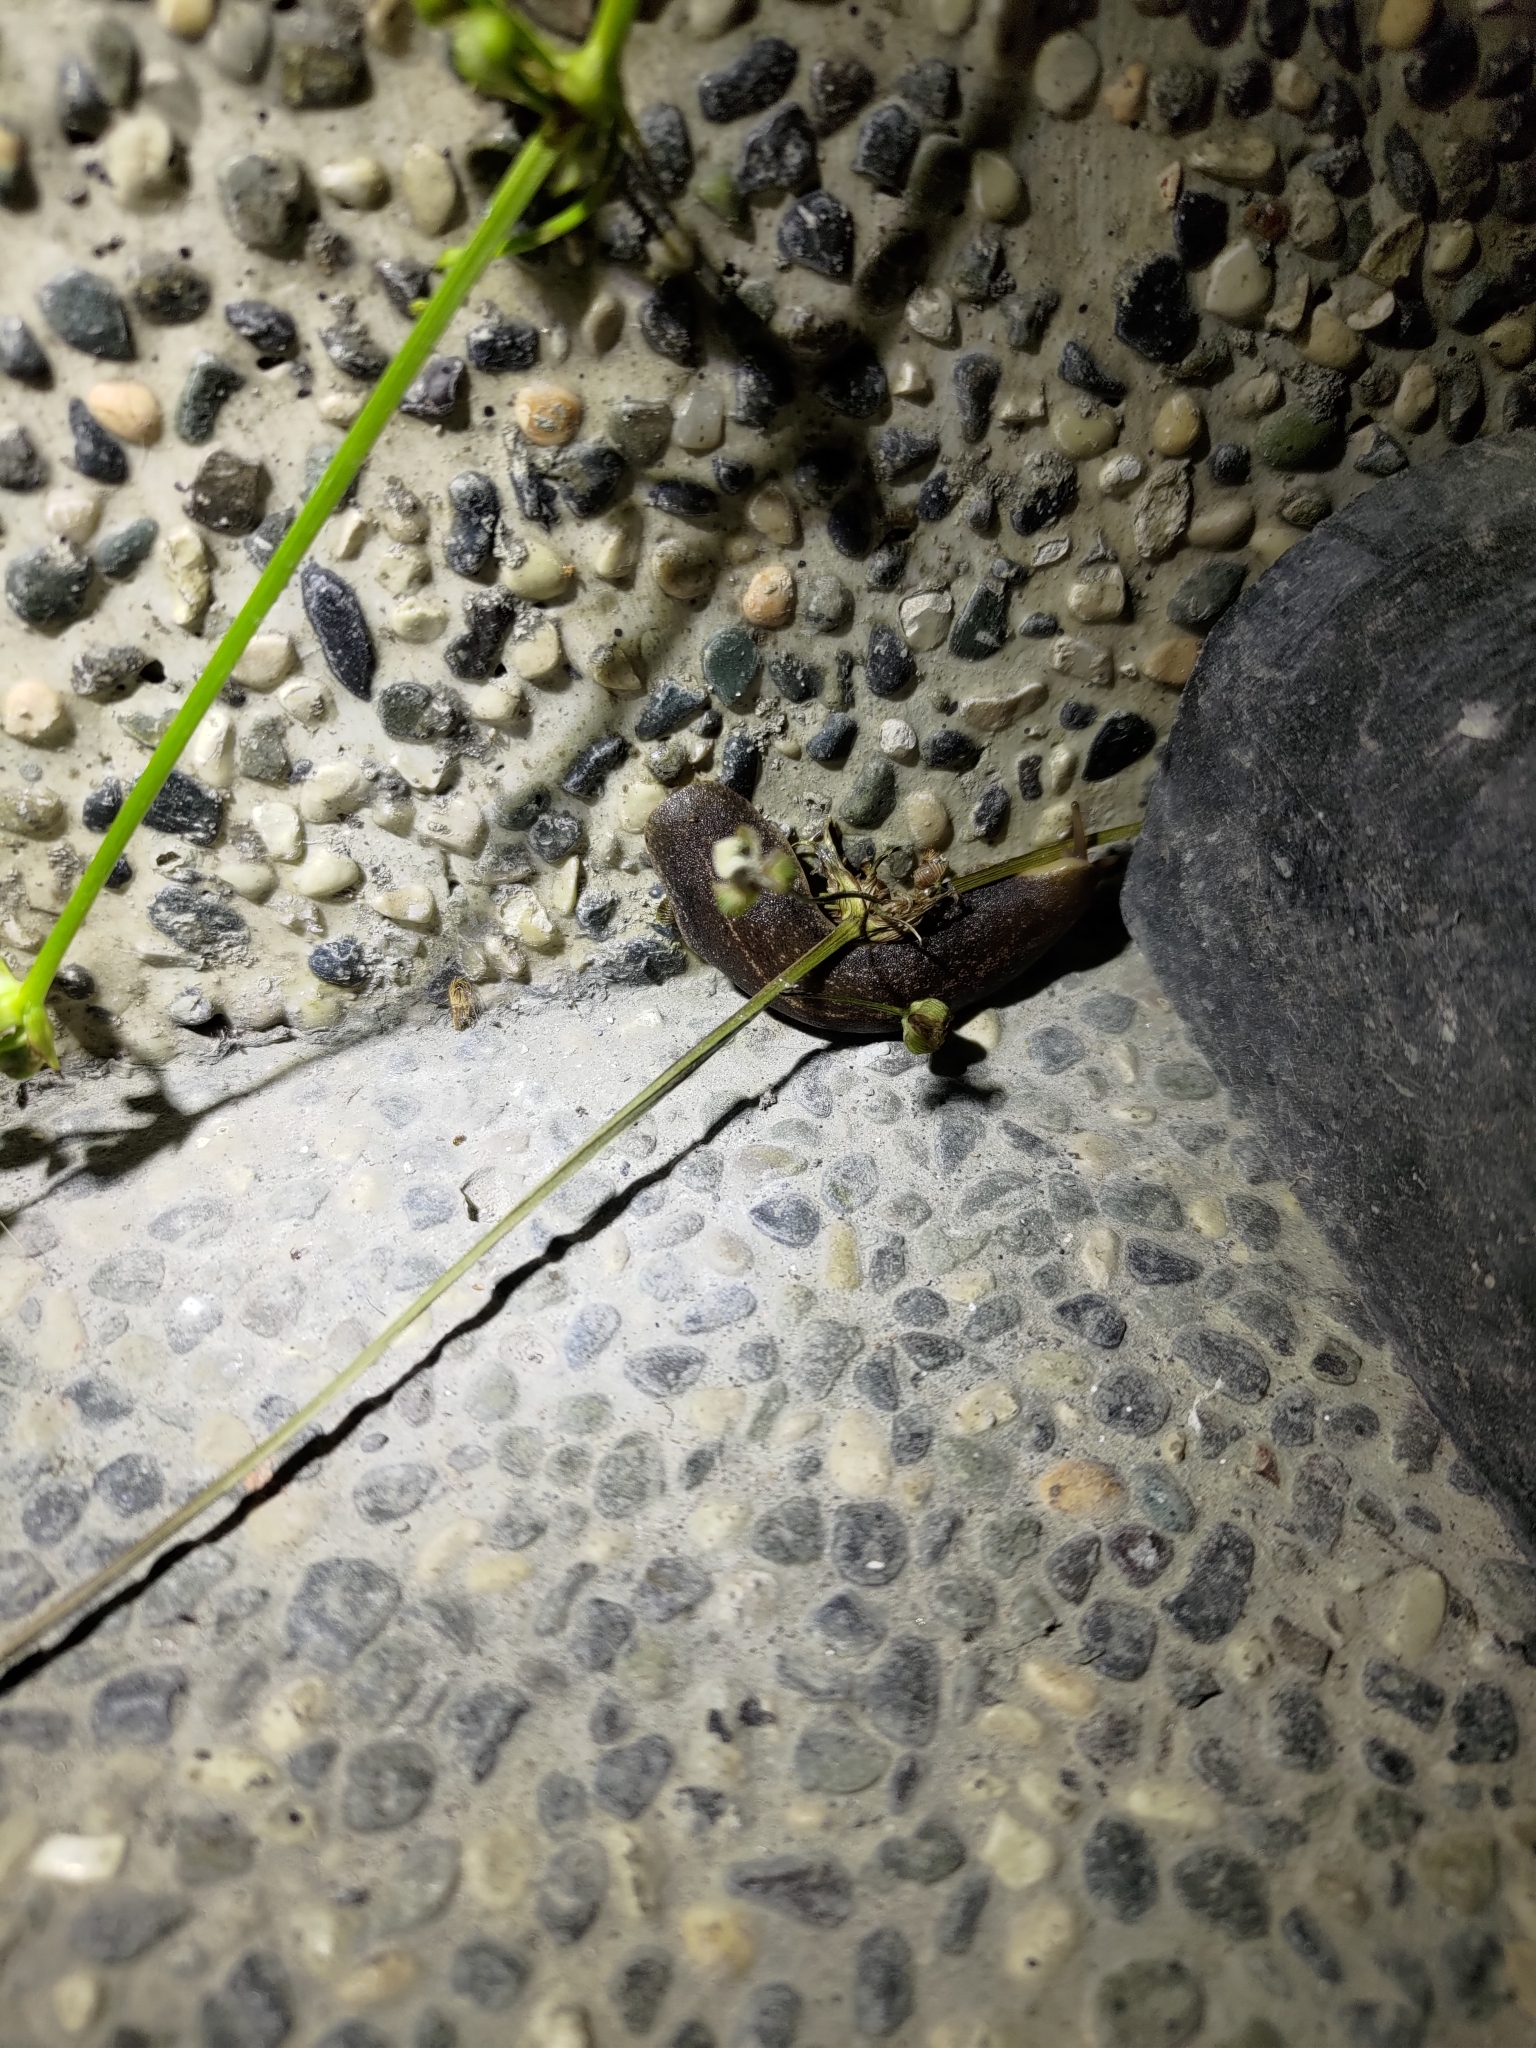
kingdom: Animalia
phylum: Mollusca
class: Gastropoda
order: Systellommatophora
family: Veronicellidae
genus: Laevicaulis
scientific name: Laevicaulis alte
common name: Tropical leatherleaf
